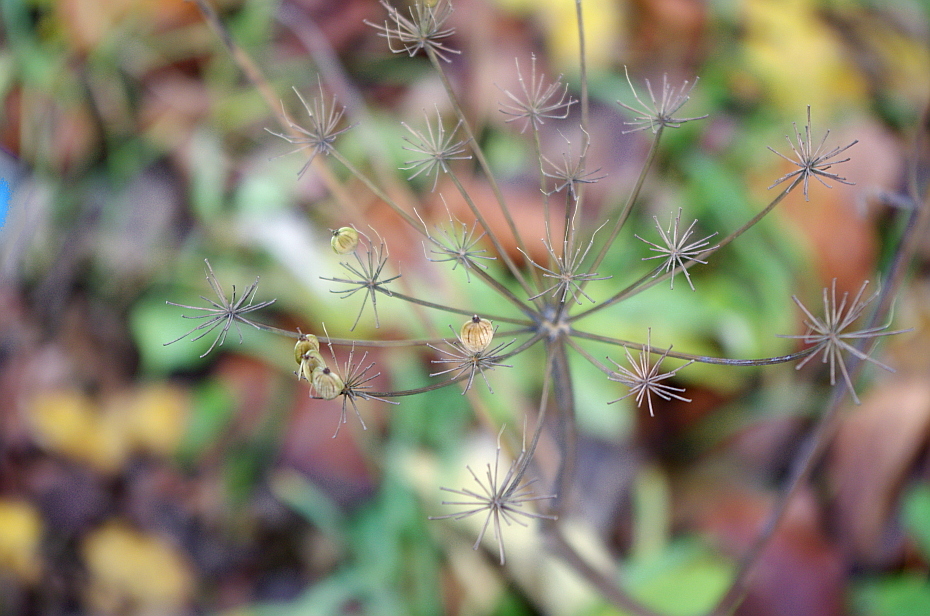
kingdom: Plantae
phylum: Tracheophyta
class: Magnoliopsida
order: Apiales
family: Apiaceae
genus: Heracleum
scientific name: Heracleum sphondylium
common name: Hogweed
